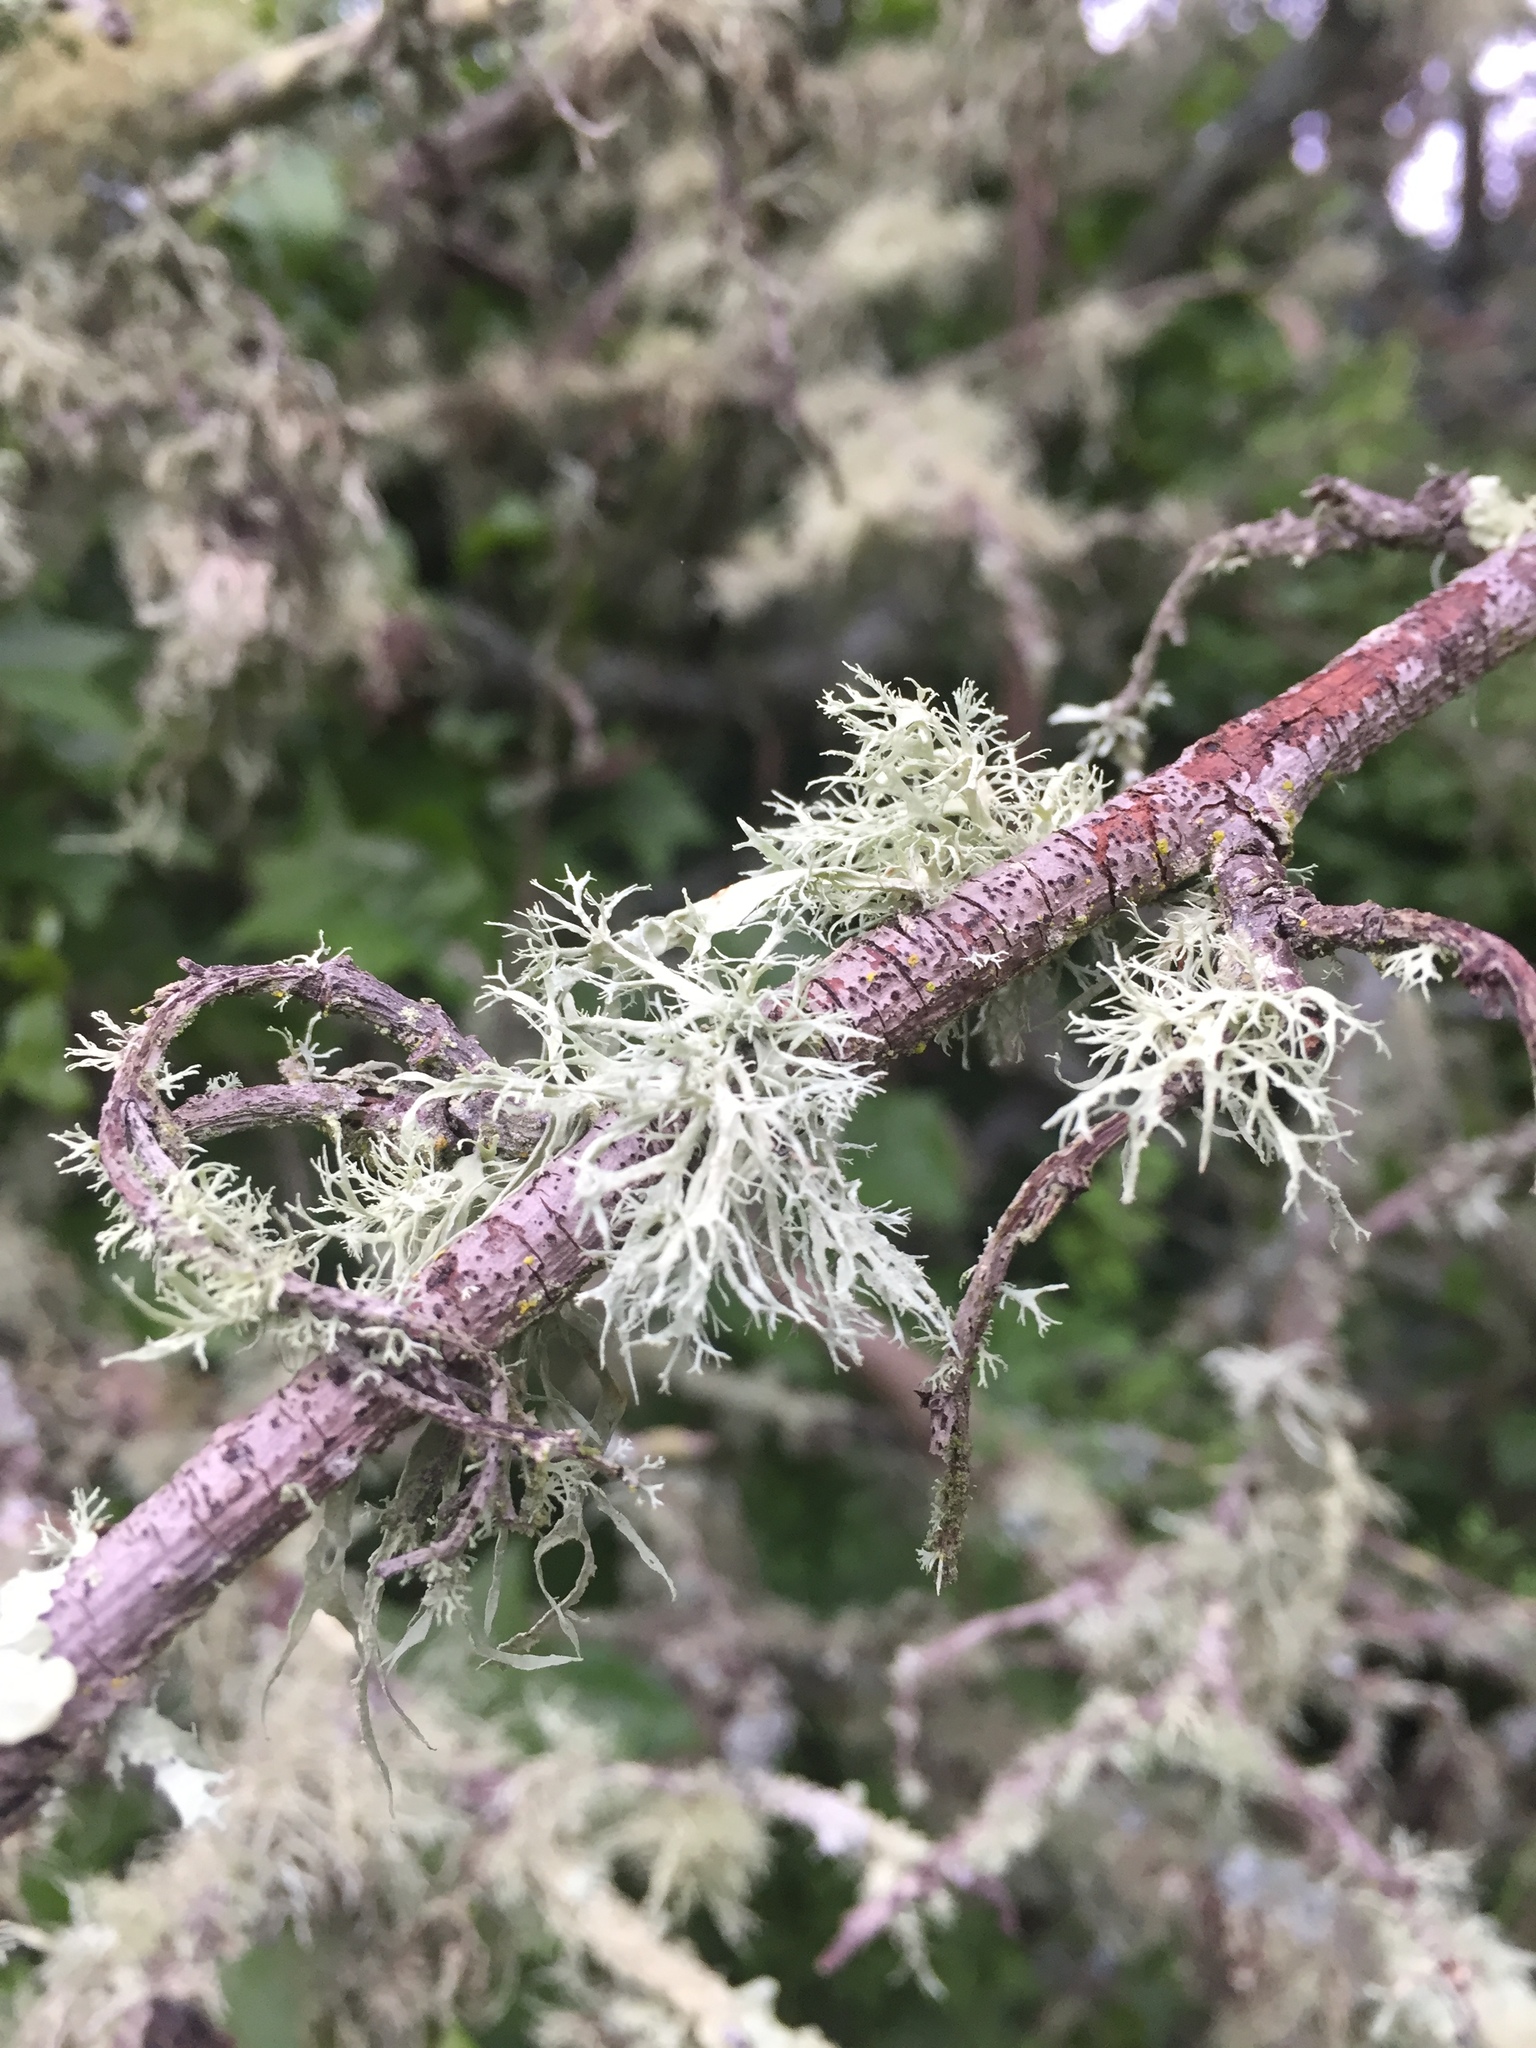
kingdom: Fungi
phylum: Ascomycota
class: Lecanoromycetes
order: Lecanorales
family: Ramalinaceae
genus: Ramalina
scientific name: Ramalina farinacea
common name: Farinose cartilage lichen
